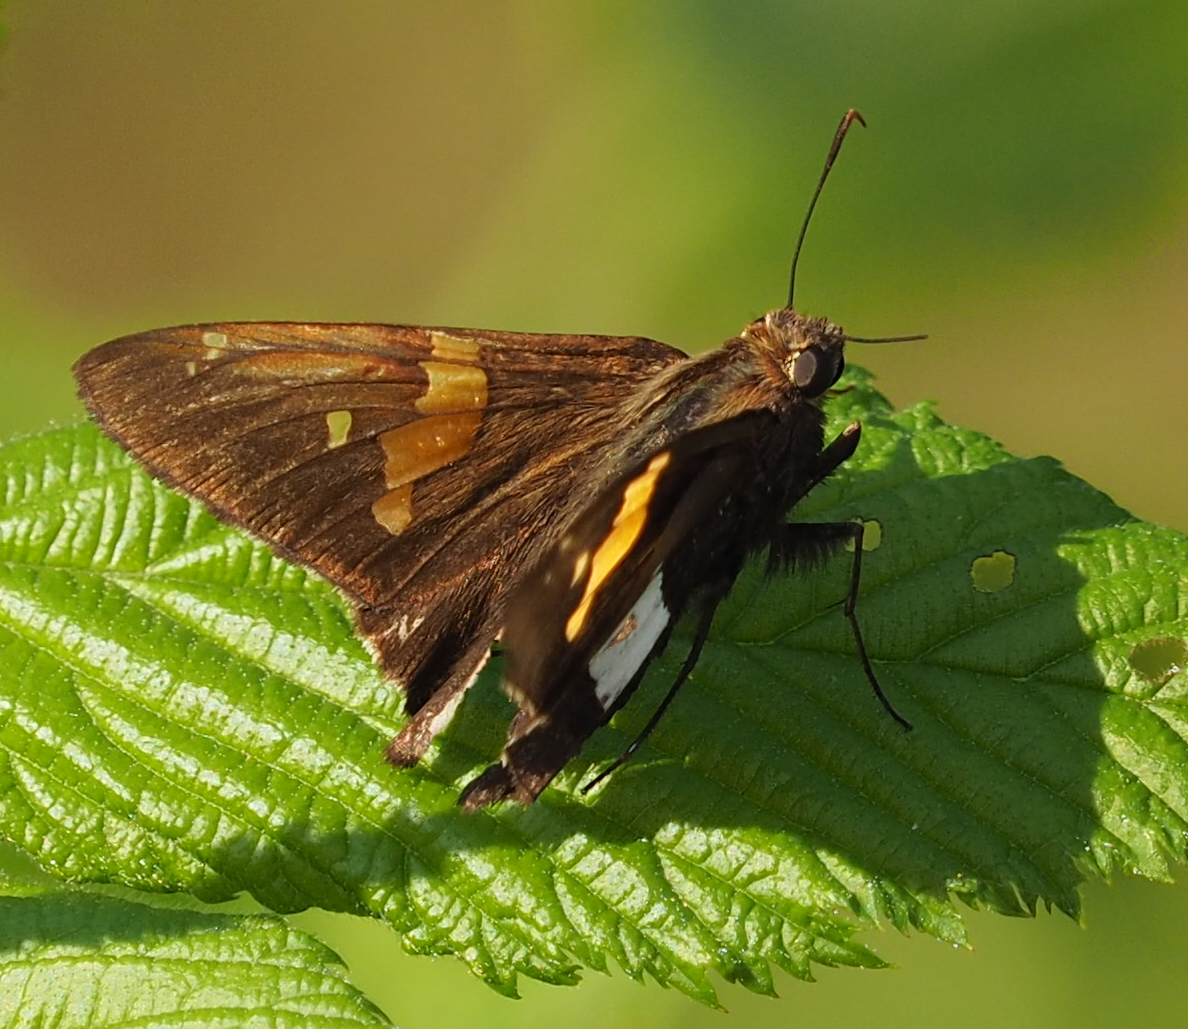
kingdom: Animalia
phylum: Arthropoda
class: Insecta
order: Lepidoptera
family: Hesperiidae
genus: Epargyreus
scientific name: Epargyreus clarus
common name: Silver-spotted skipper
